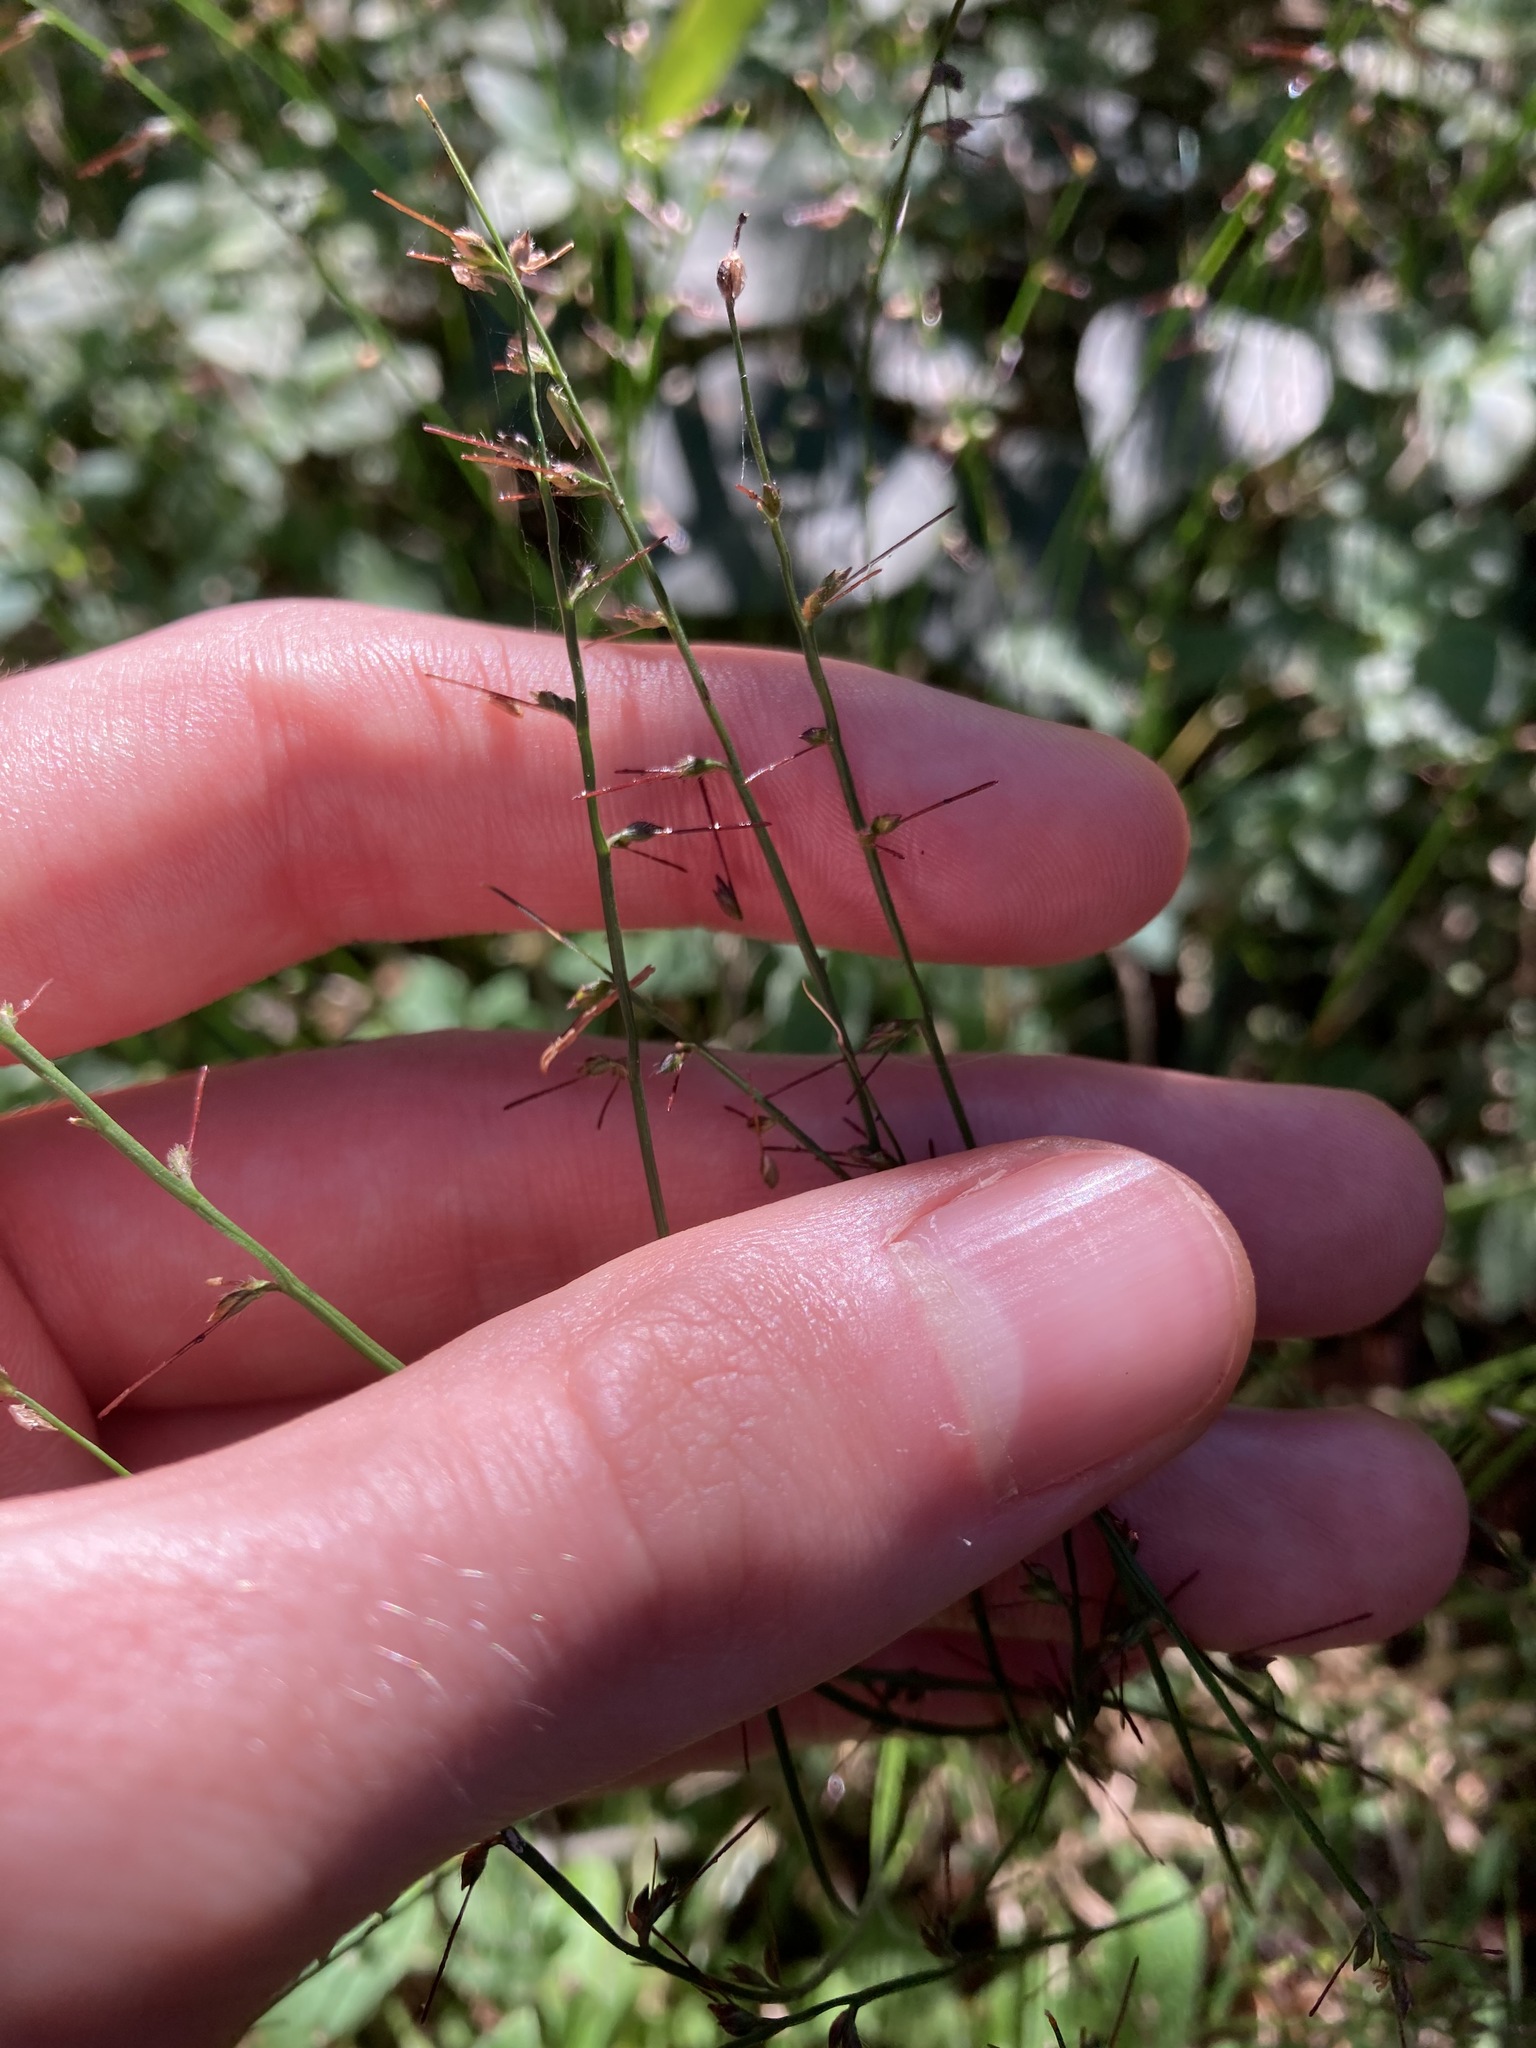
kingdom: Plantae
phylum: Tracheophyta
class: Liliopsida
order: Poales
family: Poaceae
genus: Oplismenus
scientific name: Oplismenus hirtellus
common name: Basketgrass
